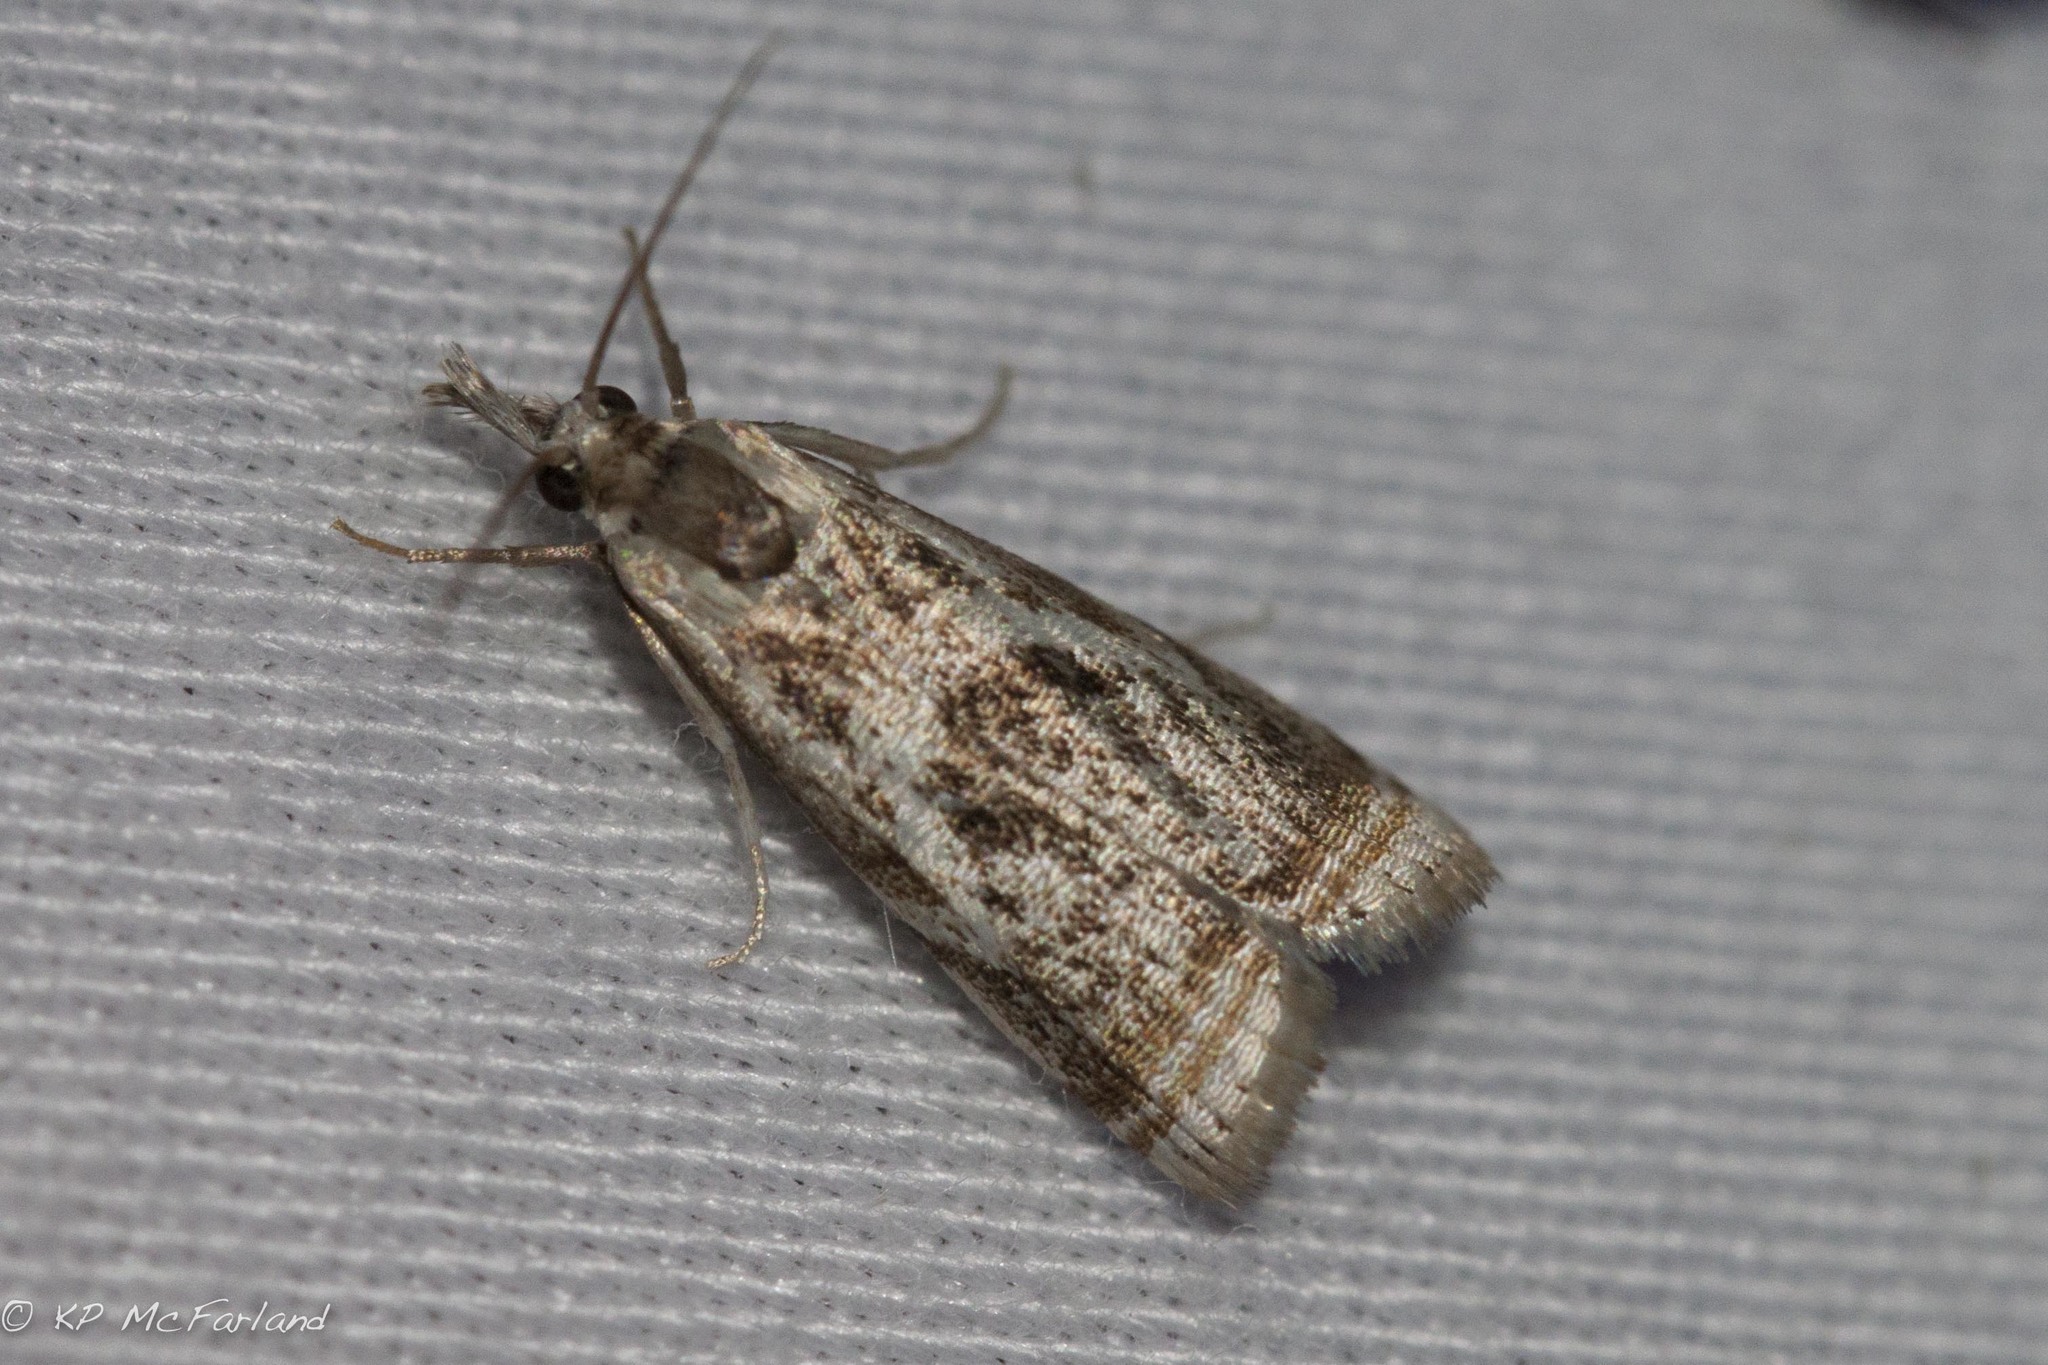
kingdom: Animalia
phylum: Arthropoda
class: Insecta
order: Lepidoptera
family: Crambidae
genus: Microcrambus
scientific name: Microcrambus elegans
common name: Elegant grass-veneer
